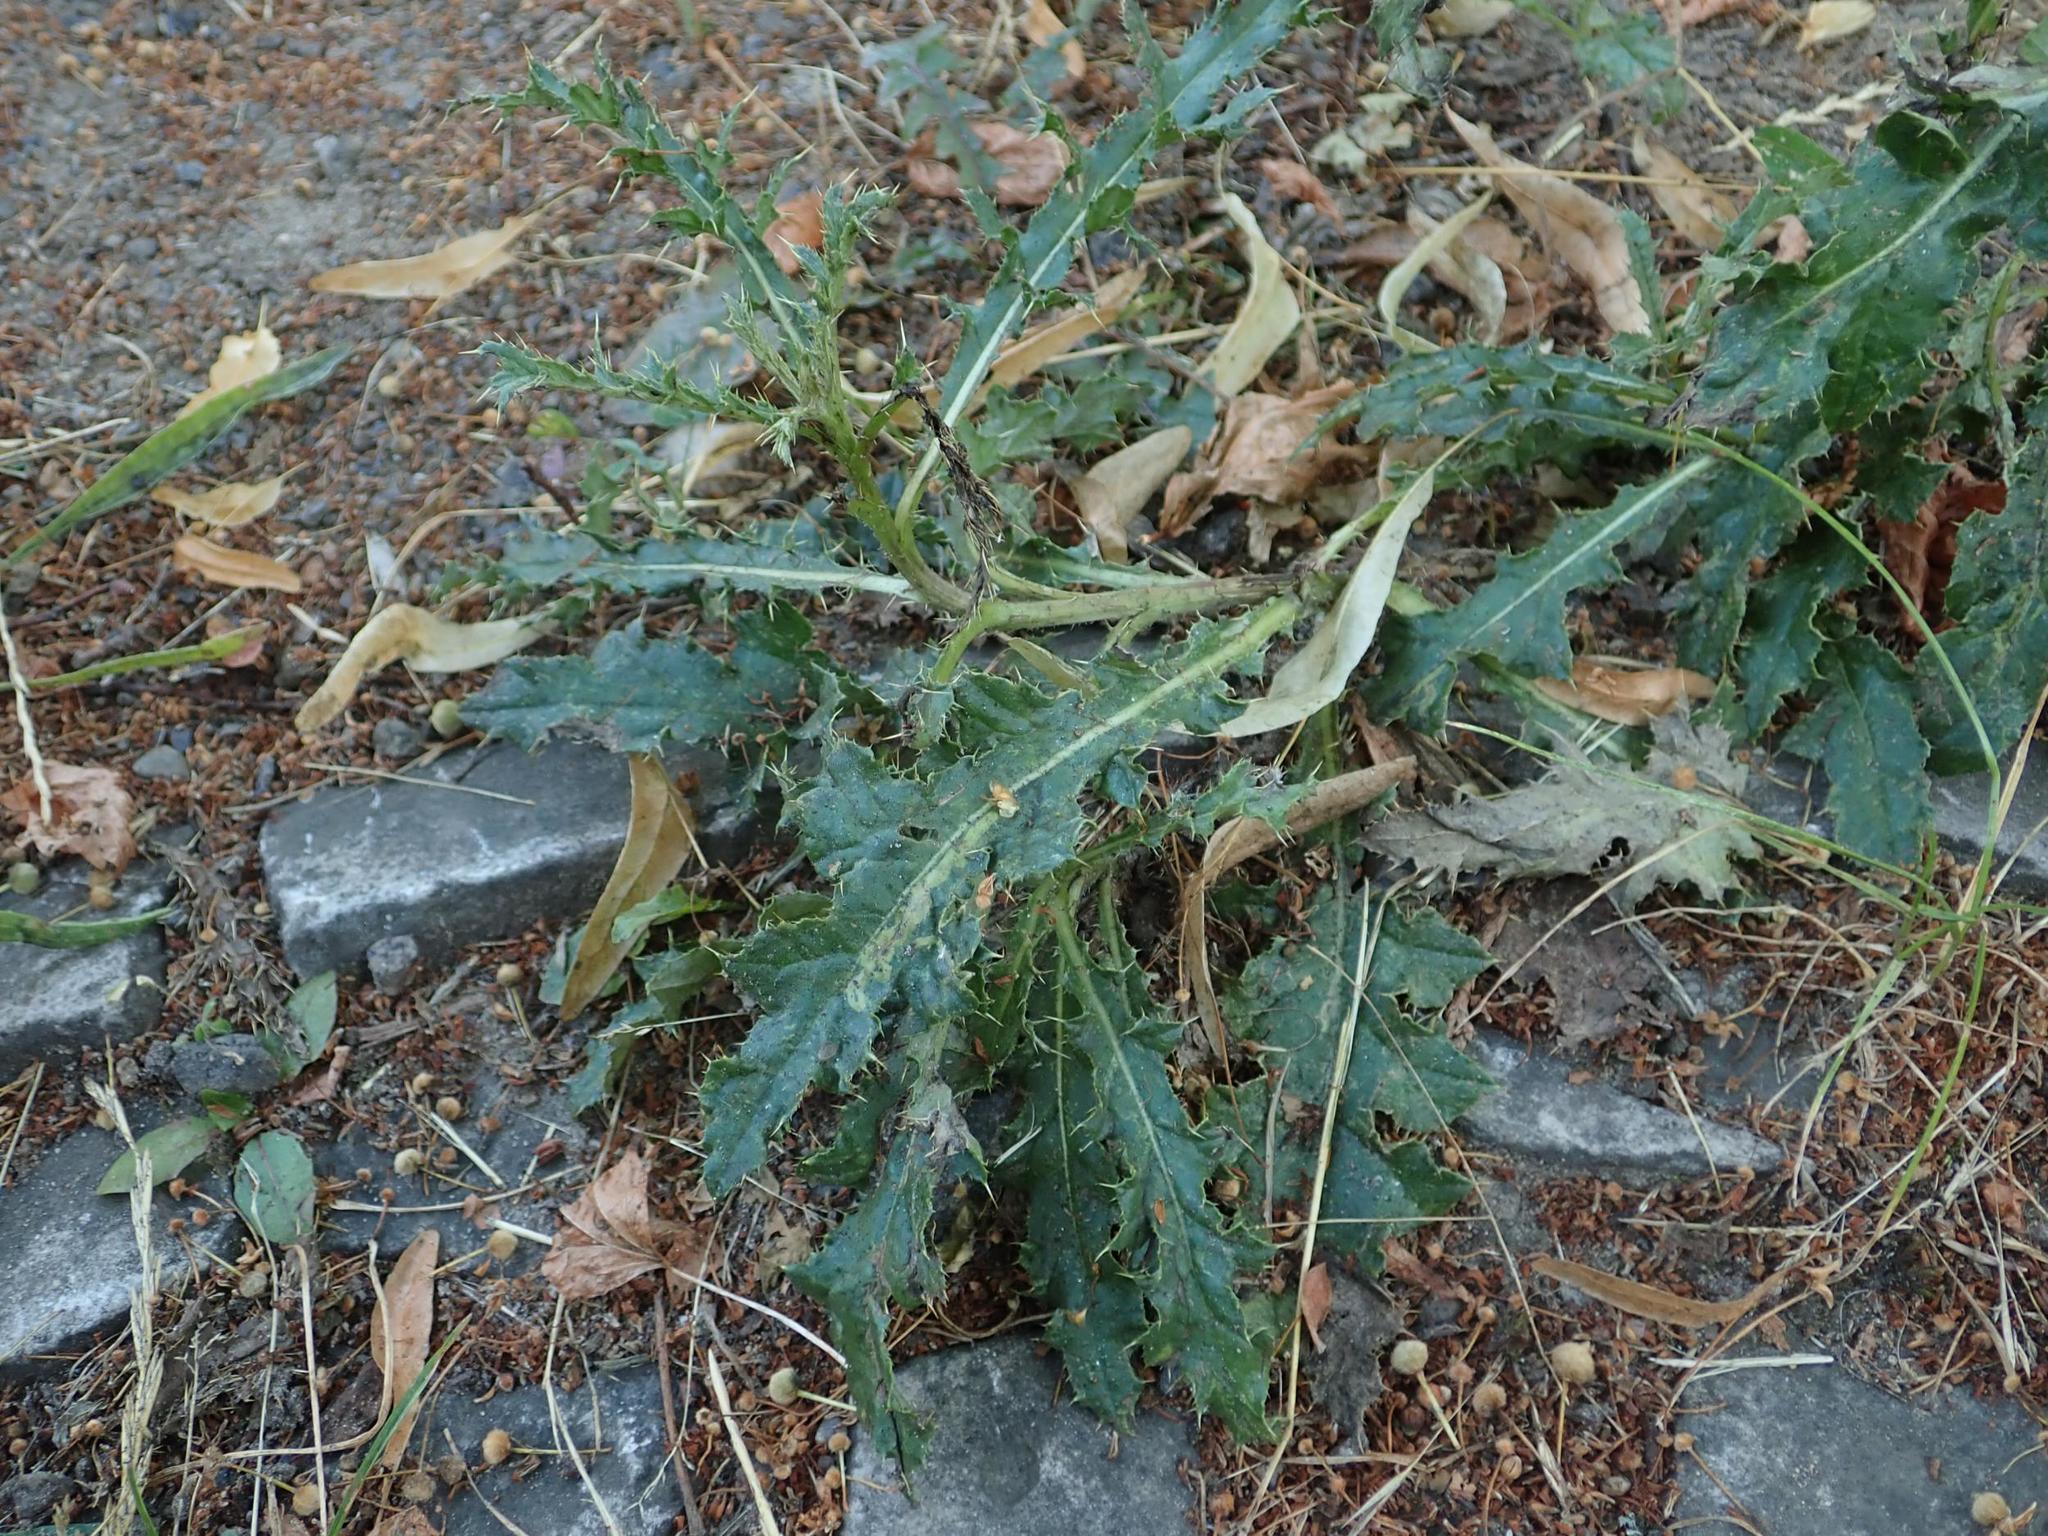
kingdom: Plantae
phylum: Tracheophyta
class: Magnoliopsida
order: Asterales
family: Asteraceae
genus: Cirsium
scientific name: Cirsium arvense
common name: Creeping thistle
